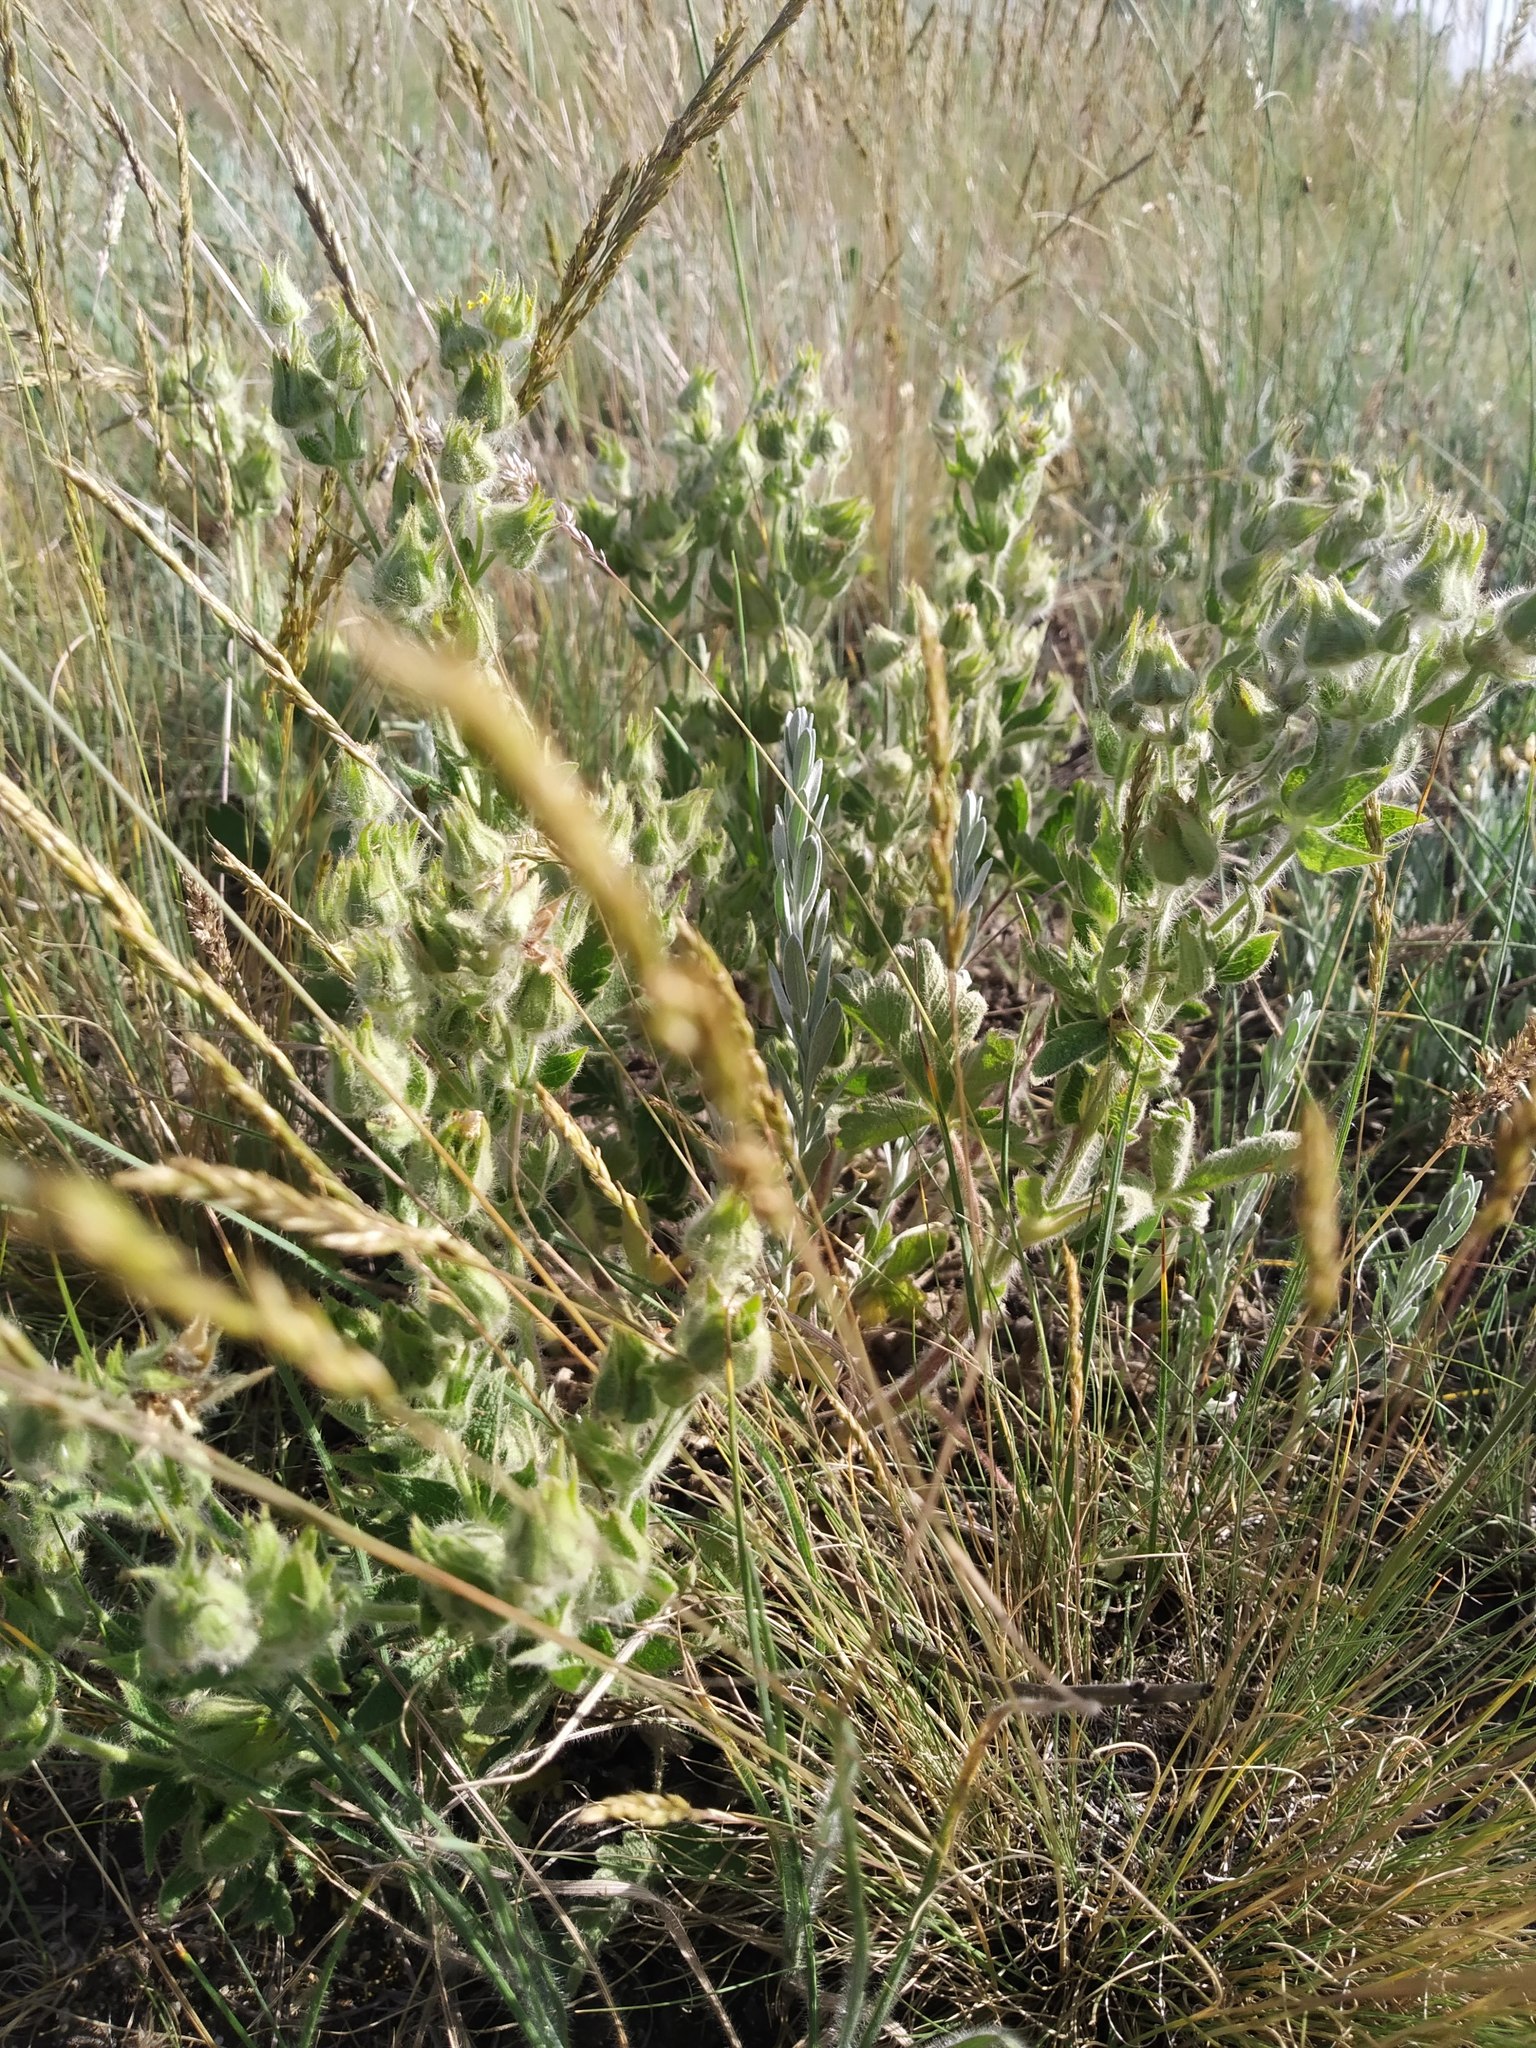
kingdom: Plantae
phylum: Tracheophyta
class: Magnoliopsida
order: Rosales
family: Rosaceae
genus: Potentilla
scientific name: Potentilla astracanica
